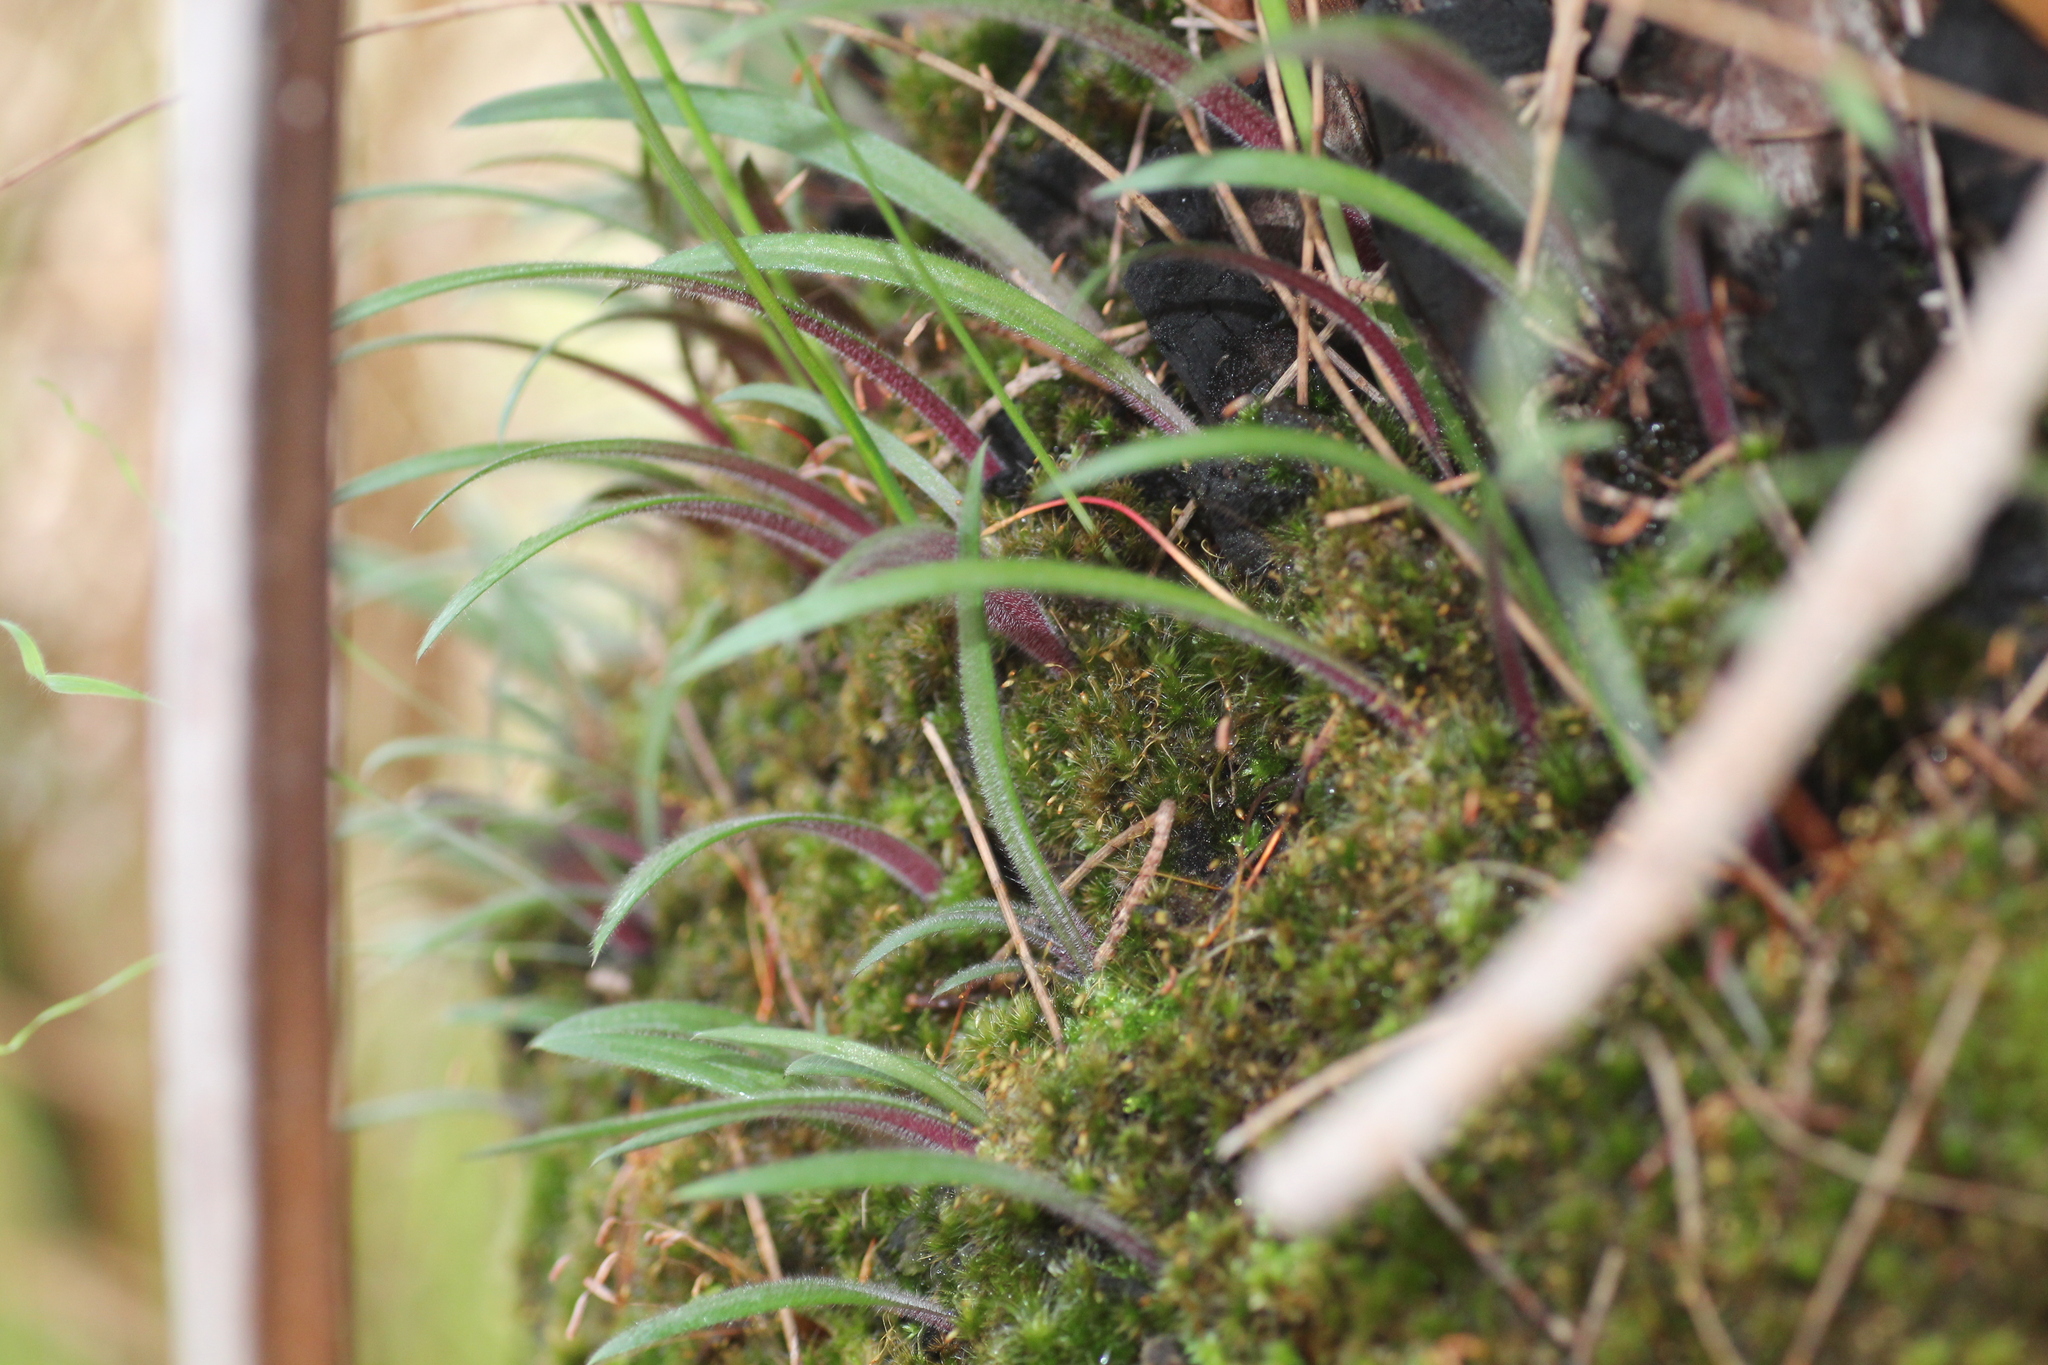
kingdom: Plantae
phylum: Tracheophyta
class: Liliopsida
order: Asparagales
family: Orchidaceae
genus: Caladenia
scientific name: Caladenia flava
